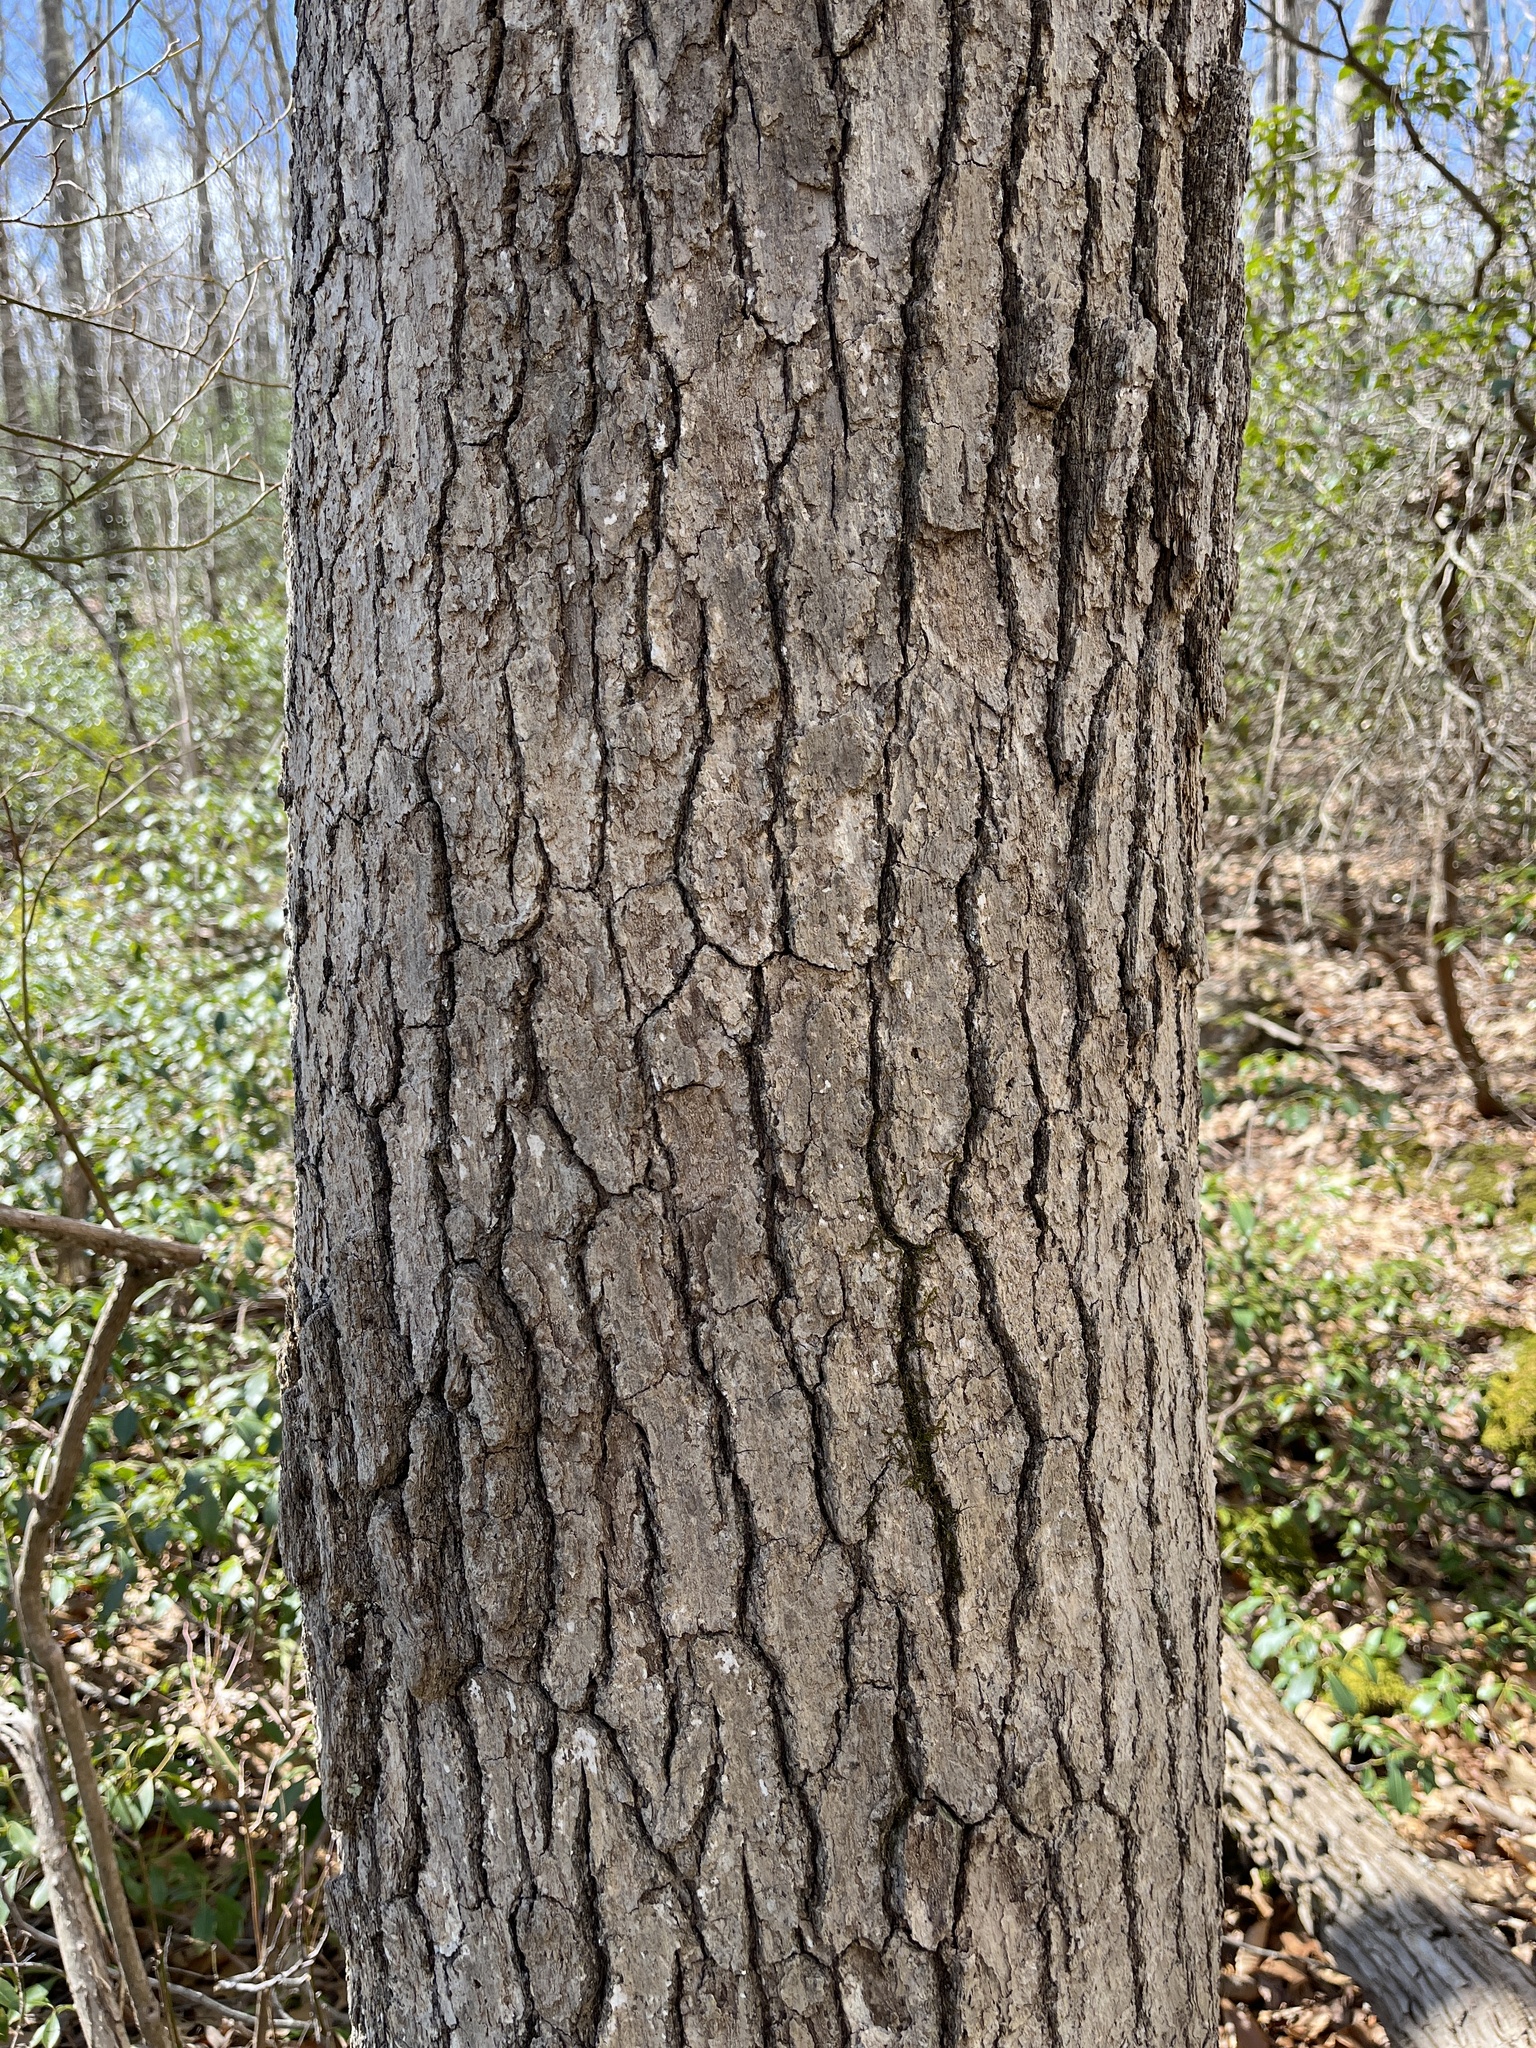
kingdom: Plantae
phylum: Tracheophyta
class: Magnoliopsida
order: Cornales
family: Nyssaceae
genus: Nyssa
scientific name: Nyssa sylvatica
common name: Black tupelo
